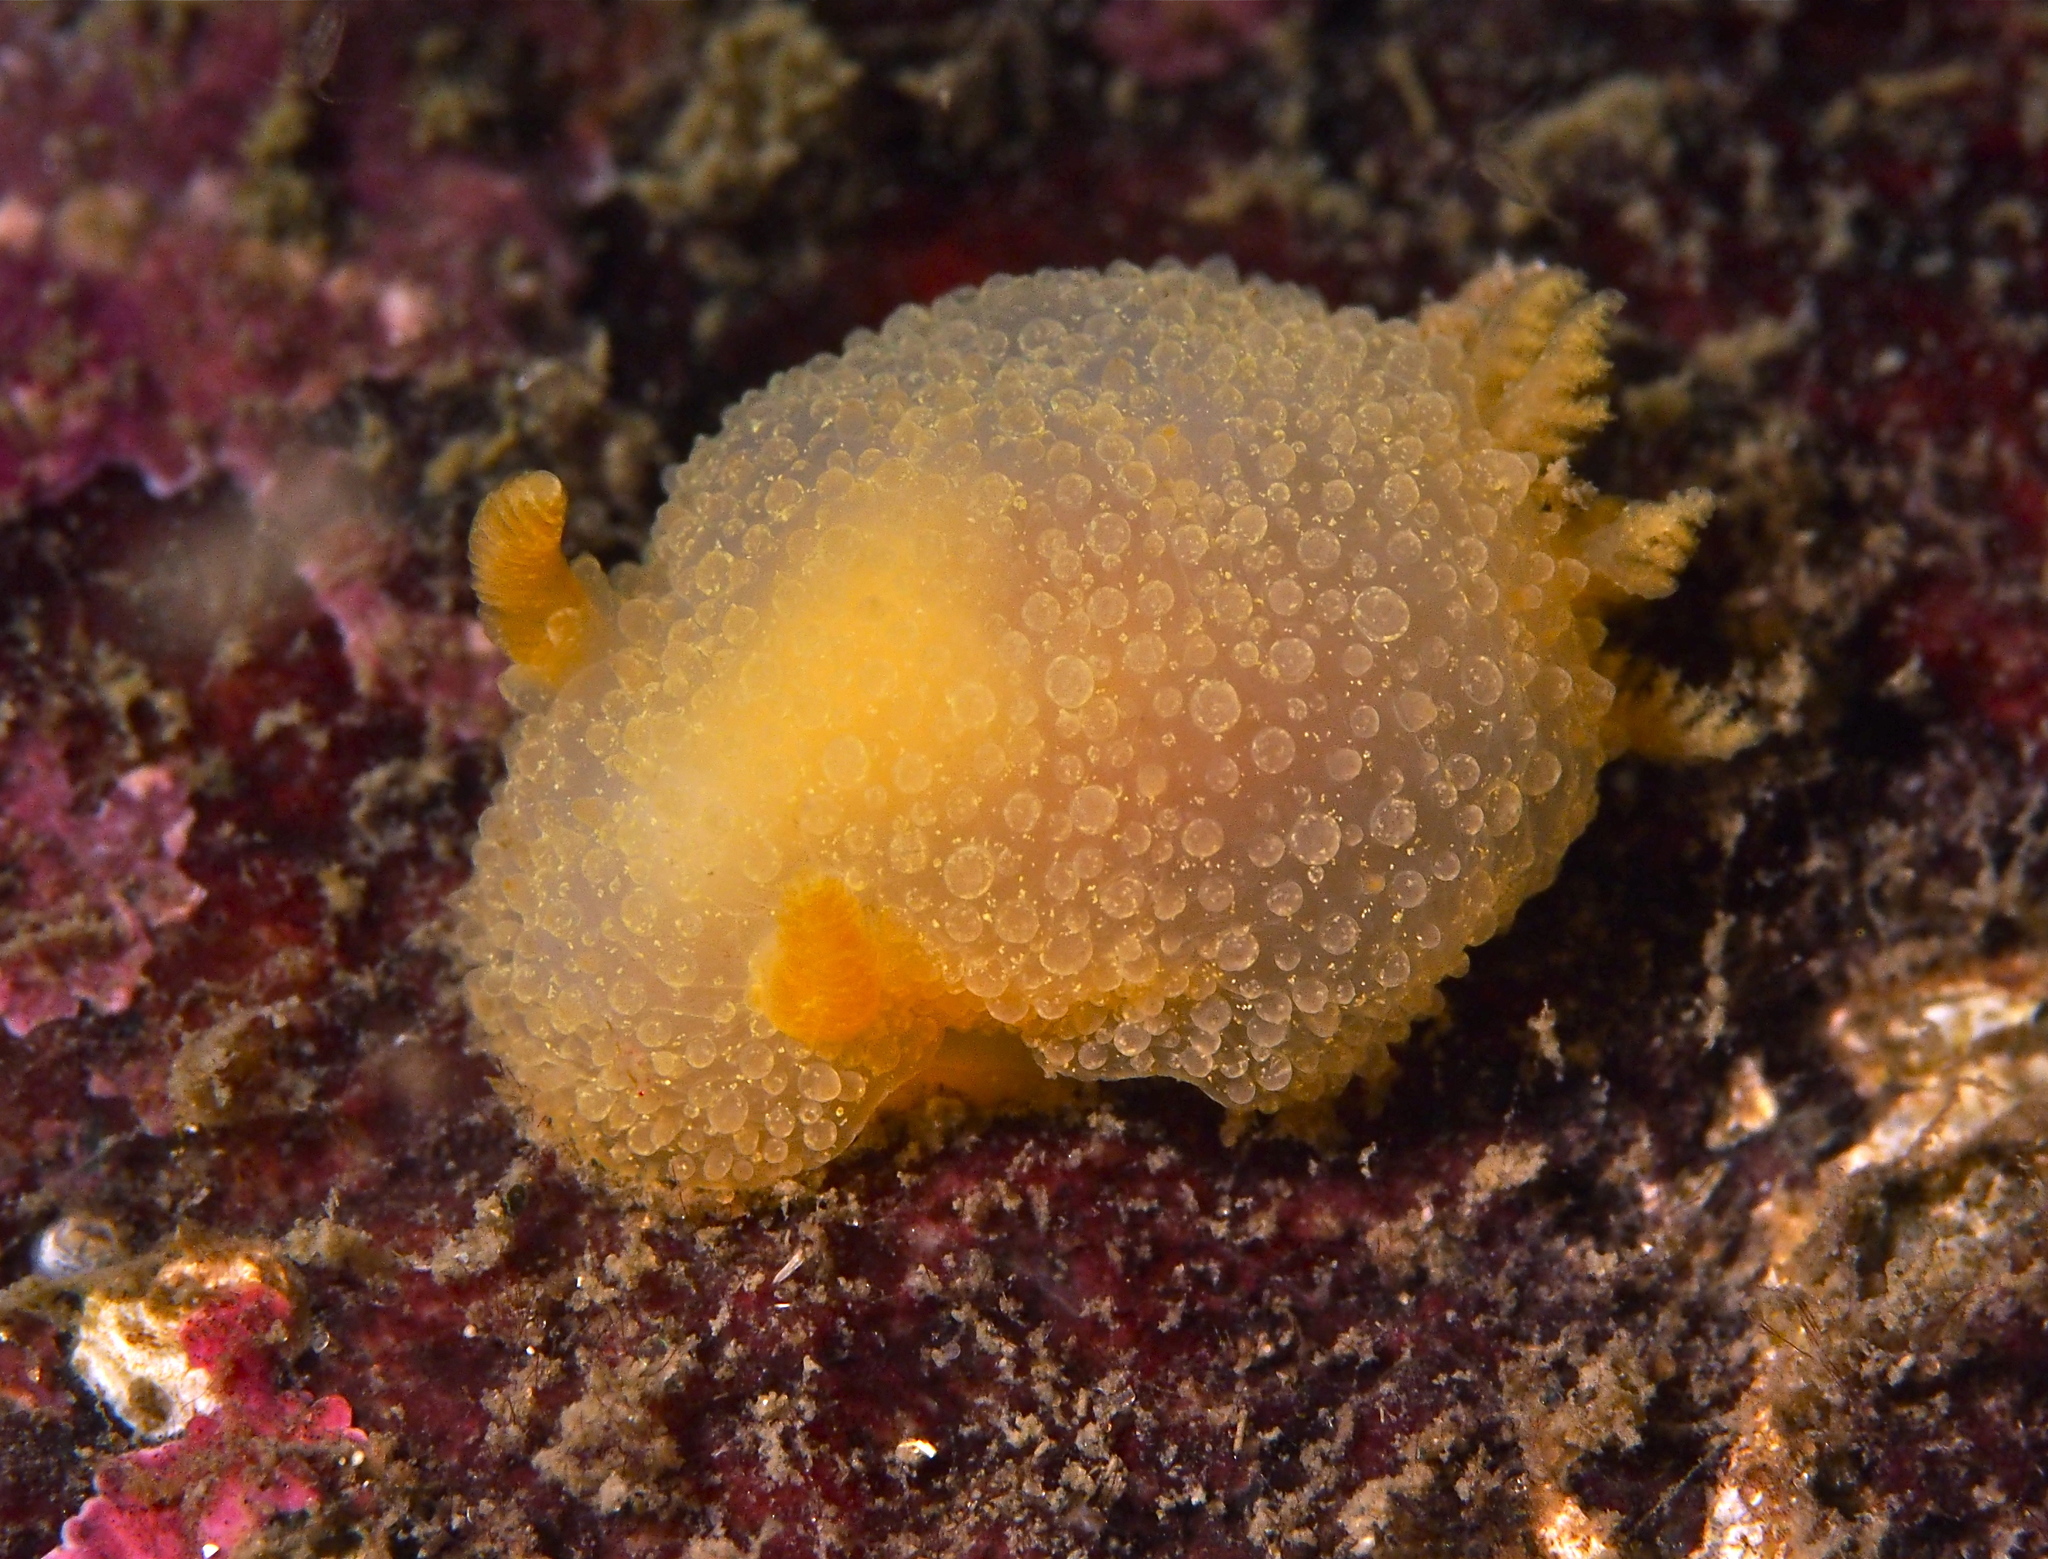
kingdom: Animalia
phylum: Mollusca
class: Gastropoda
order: Nudibranchia
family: Onchidorididae
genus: Acanthodoris
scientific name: Acanthodoris pilosa
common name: Hairy spiny doris
